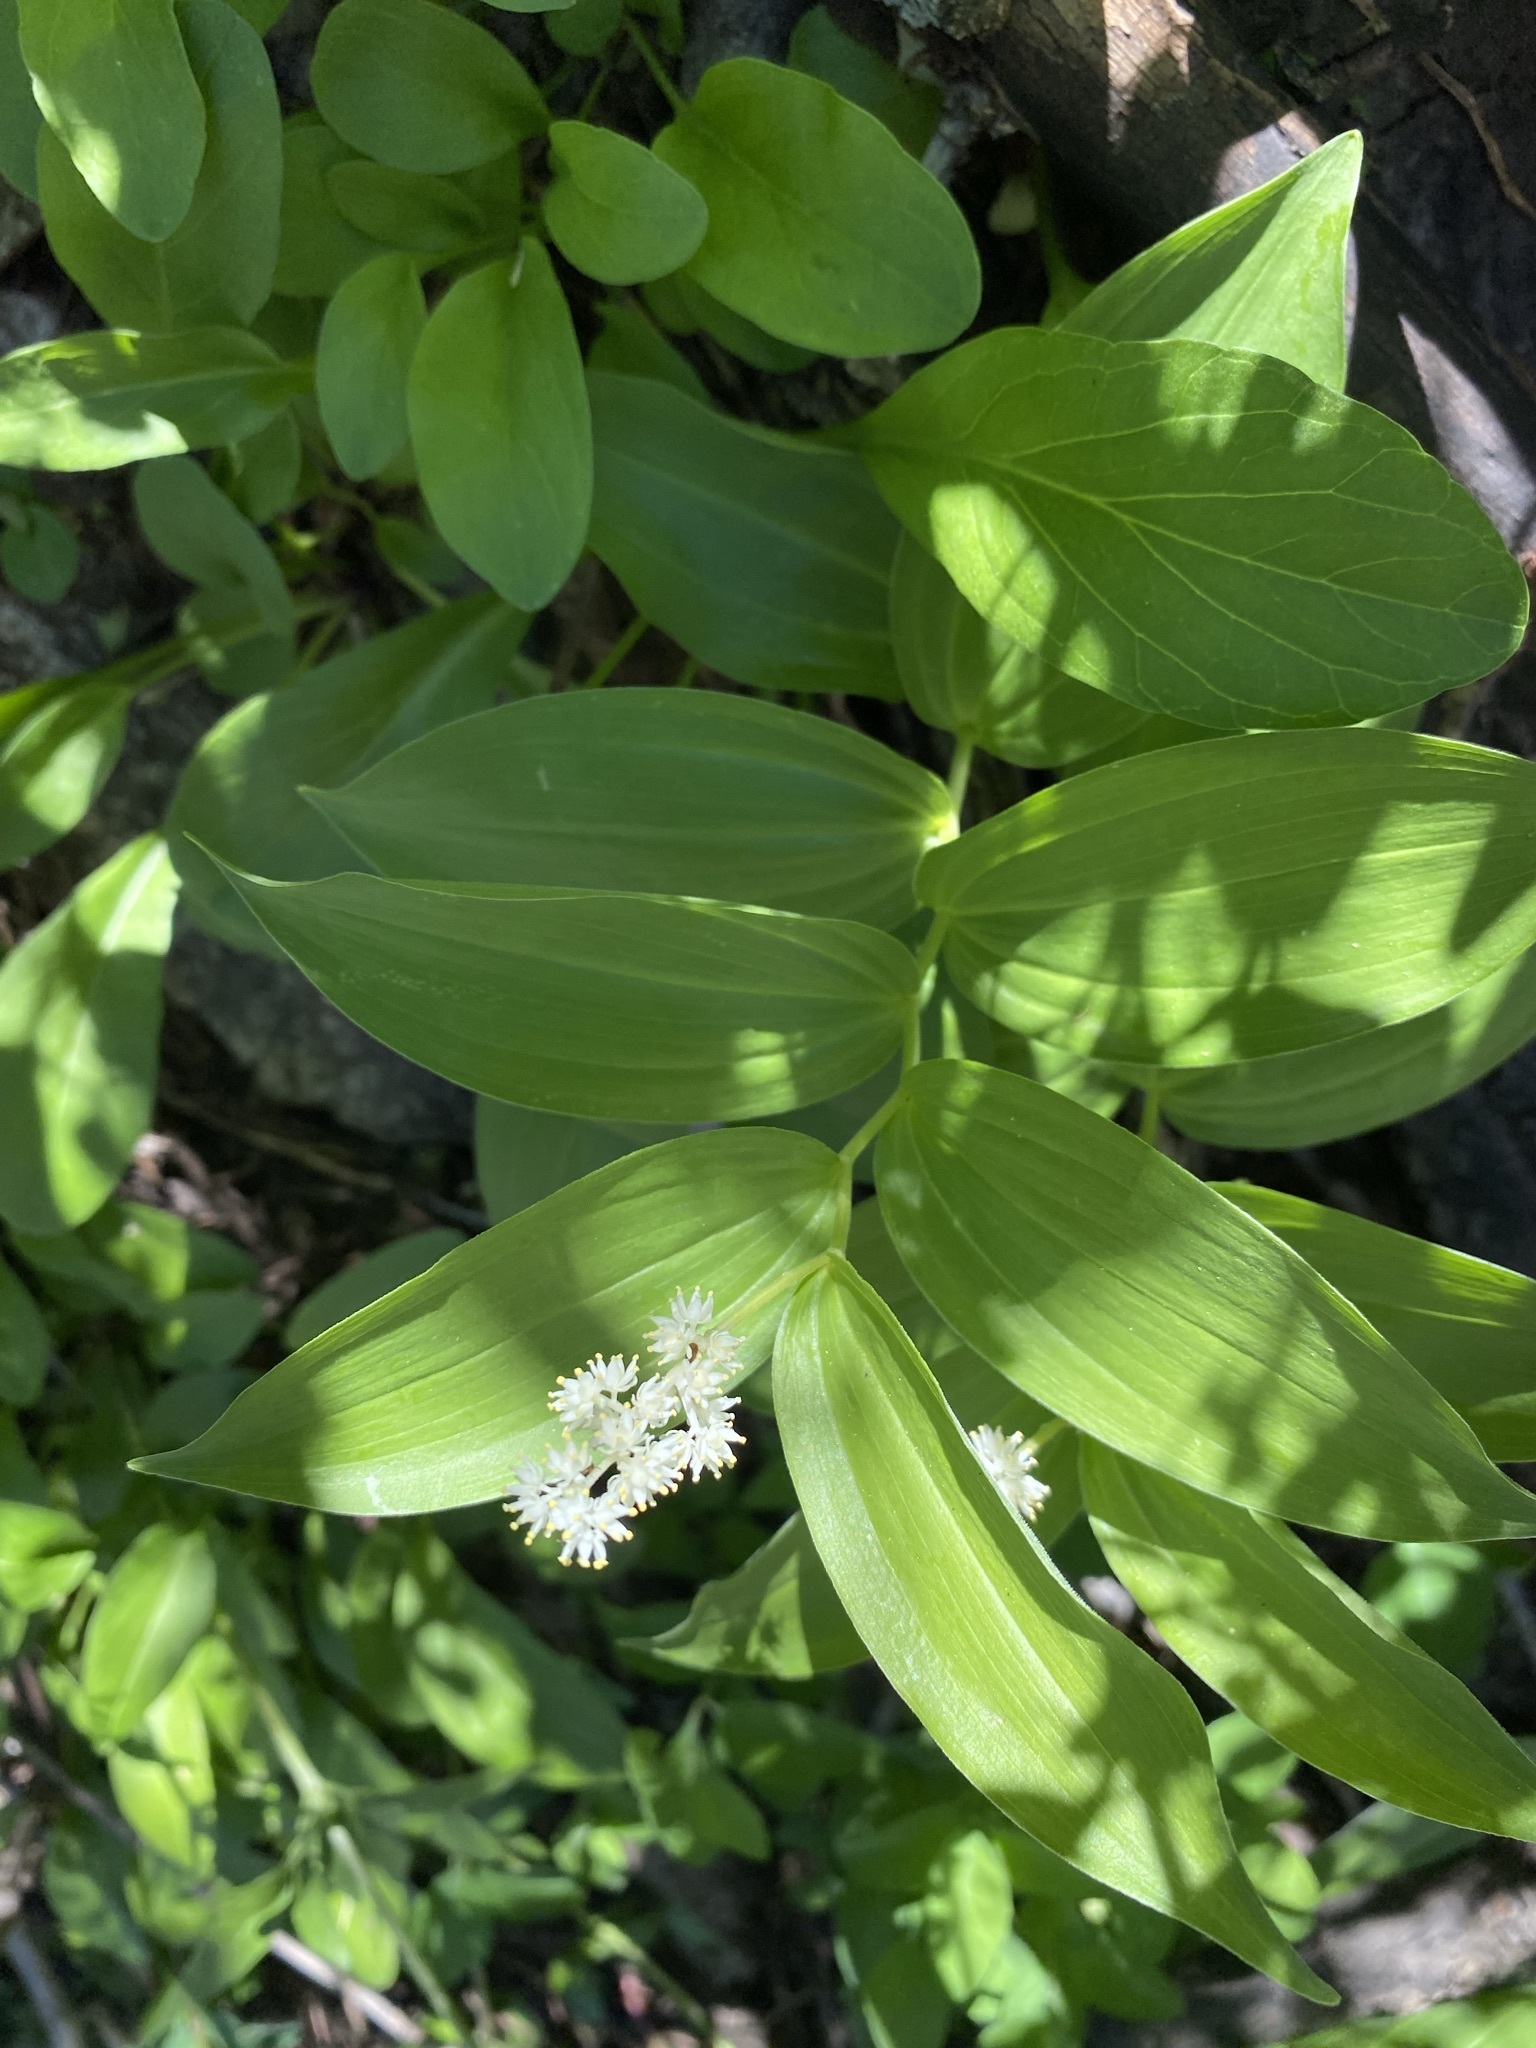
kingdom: Plantae
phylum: Tracheophyta
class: Liliopsida
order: Asparagales
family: Asparagaceae
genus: Maianthemum
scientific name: Maianthemum racemosum
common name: False spikenard
